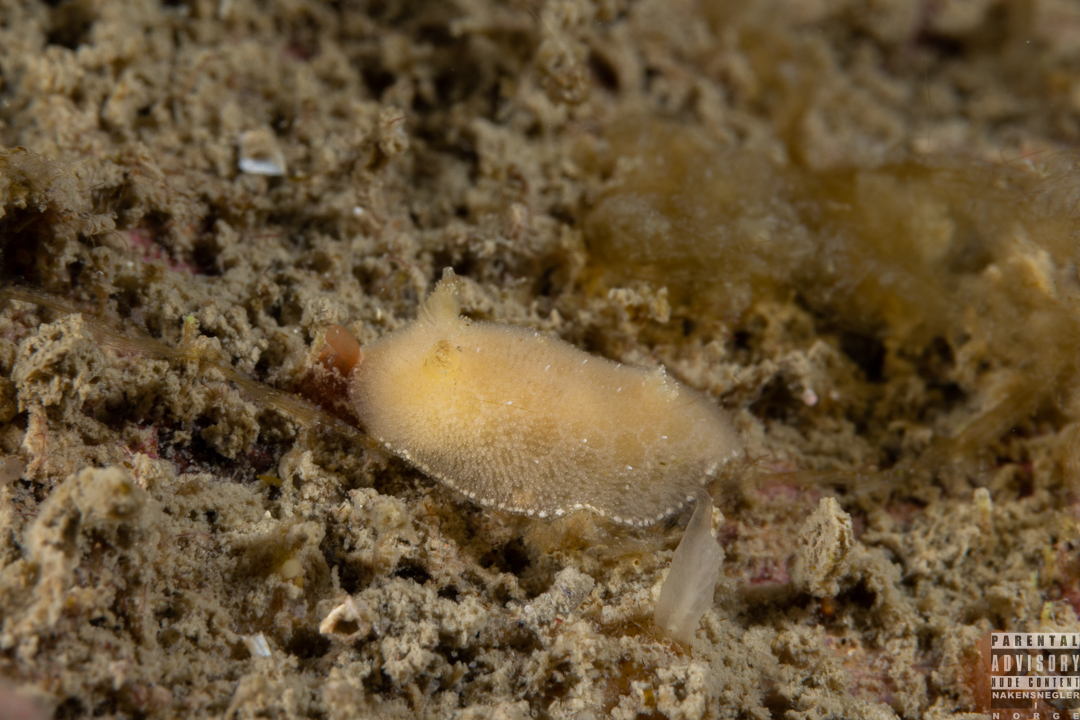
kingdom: Animalia
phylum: Mollusca
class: Gastropoda
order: Nudibranchia
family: Discodorididae
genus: Jorunna
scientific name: Jorunna tomentosa
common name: Grey sea slug
